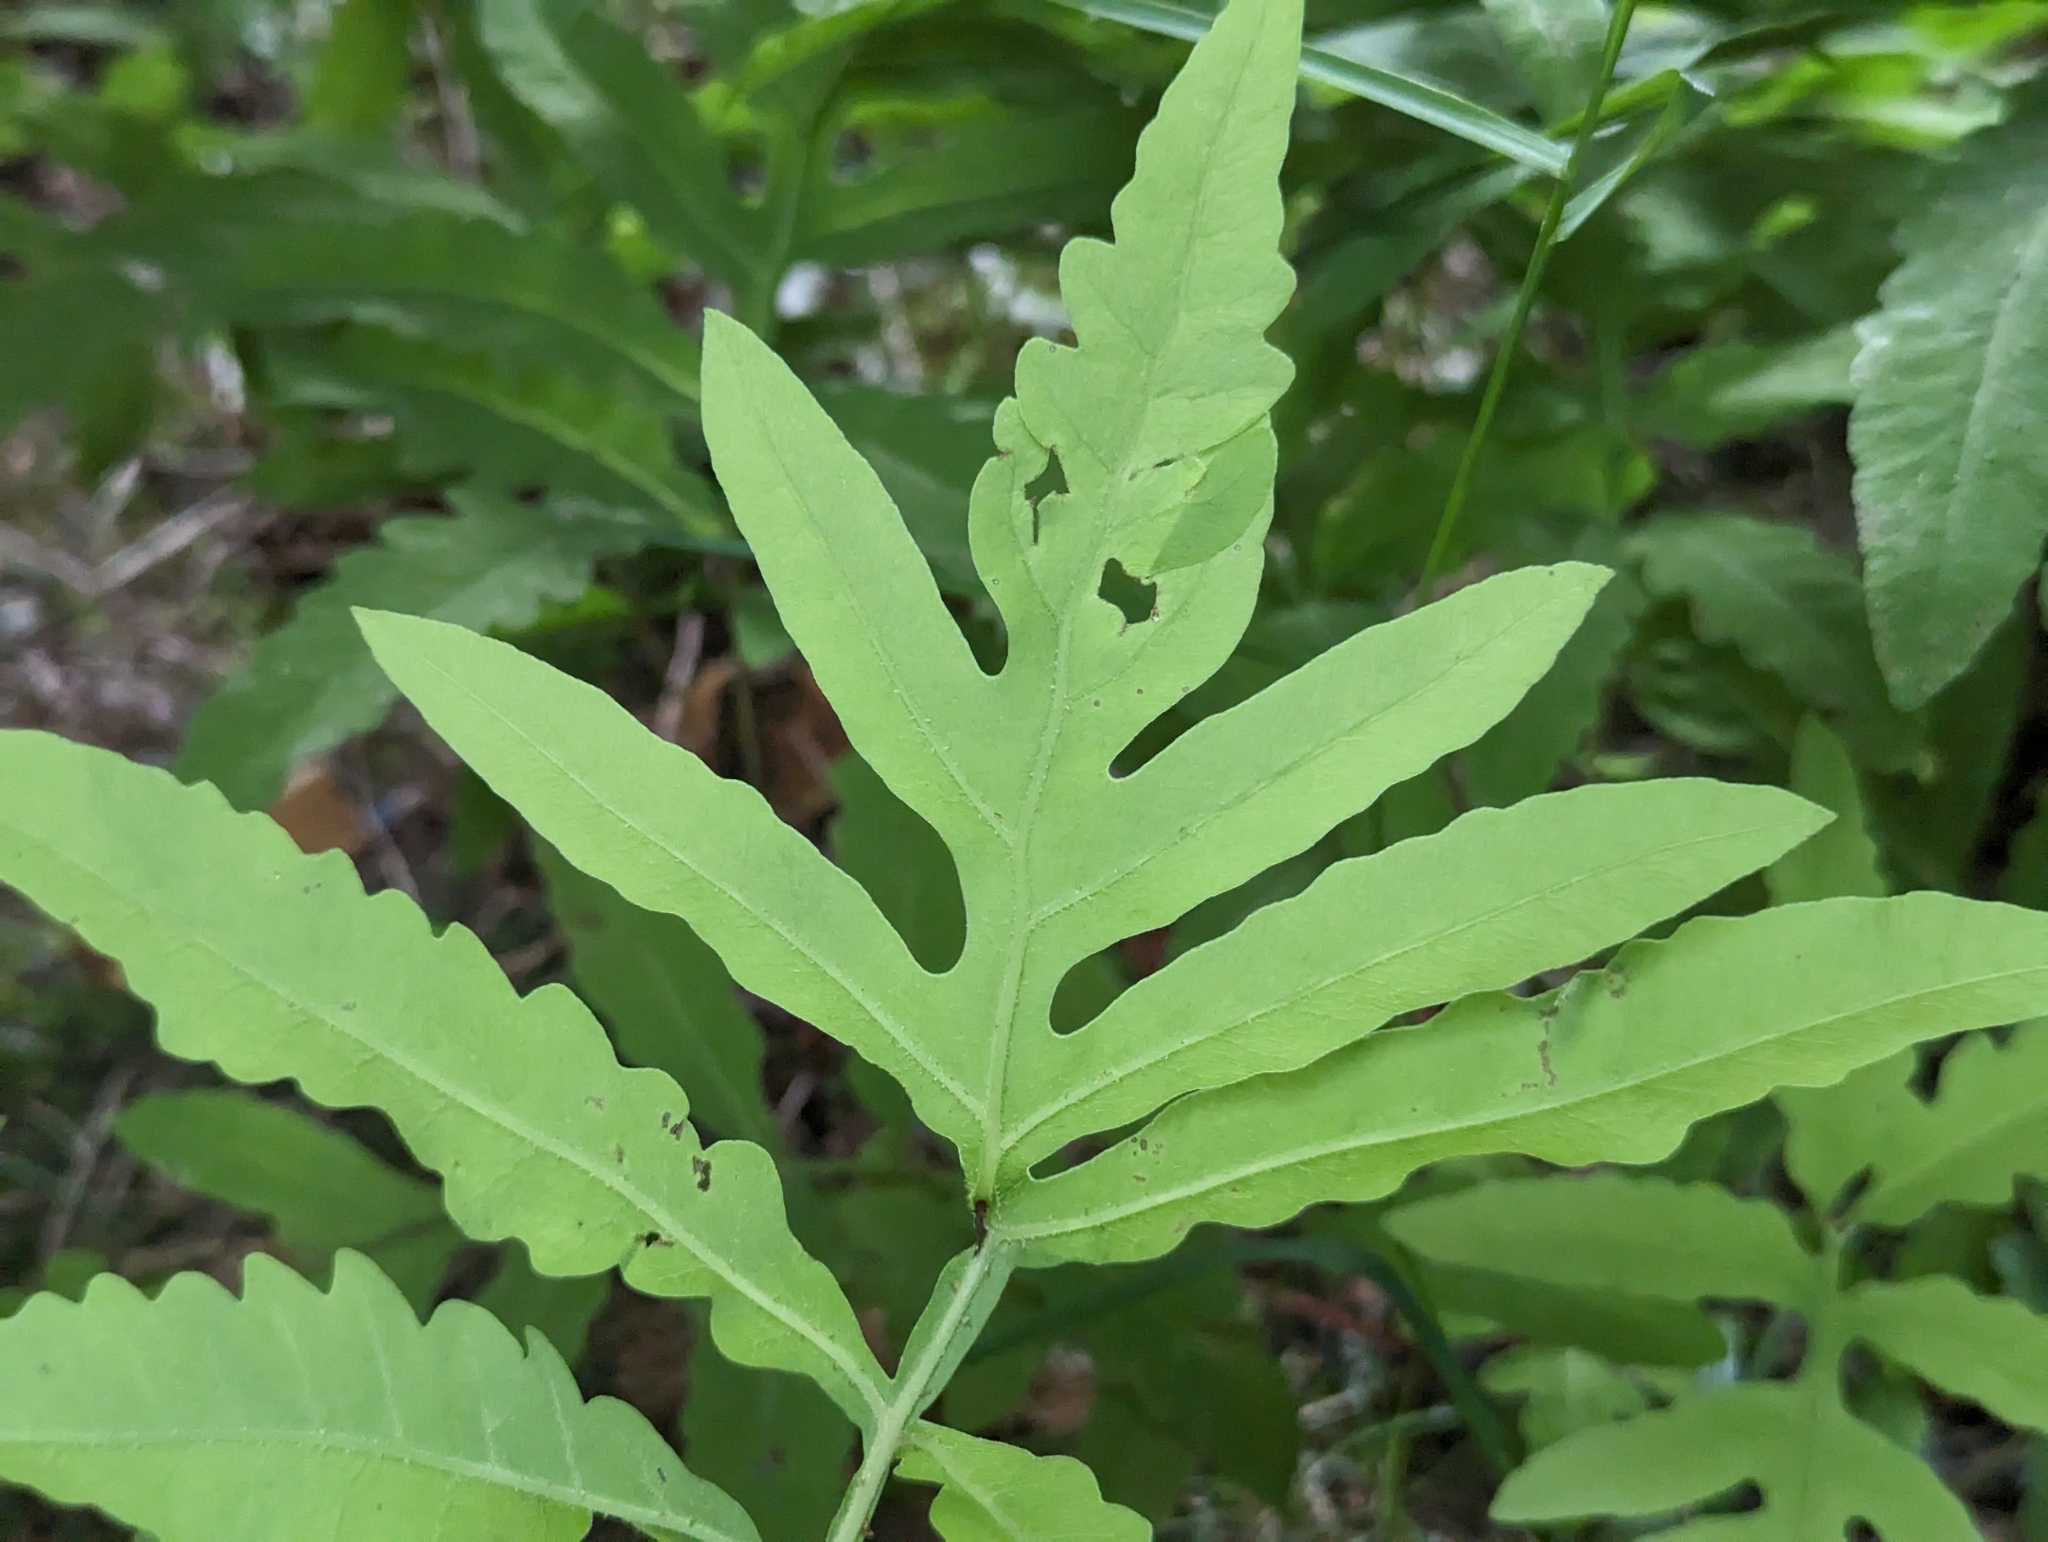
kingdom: Plantae
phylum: Tracheophyta
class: Polypodiopsida
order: Polypodiales
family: Onocleaceae
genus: Onoclea
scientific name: Onoclea sensibilis
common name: Sensitive fern
